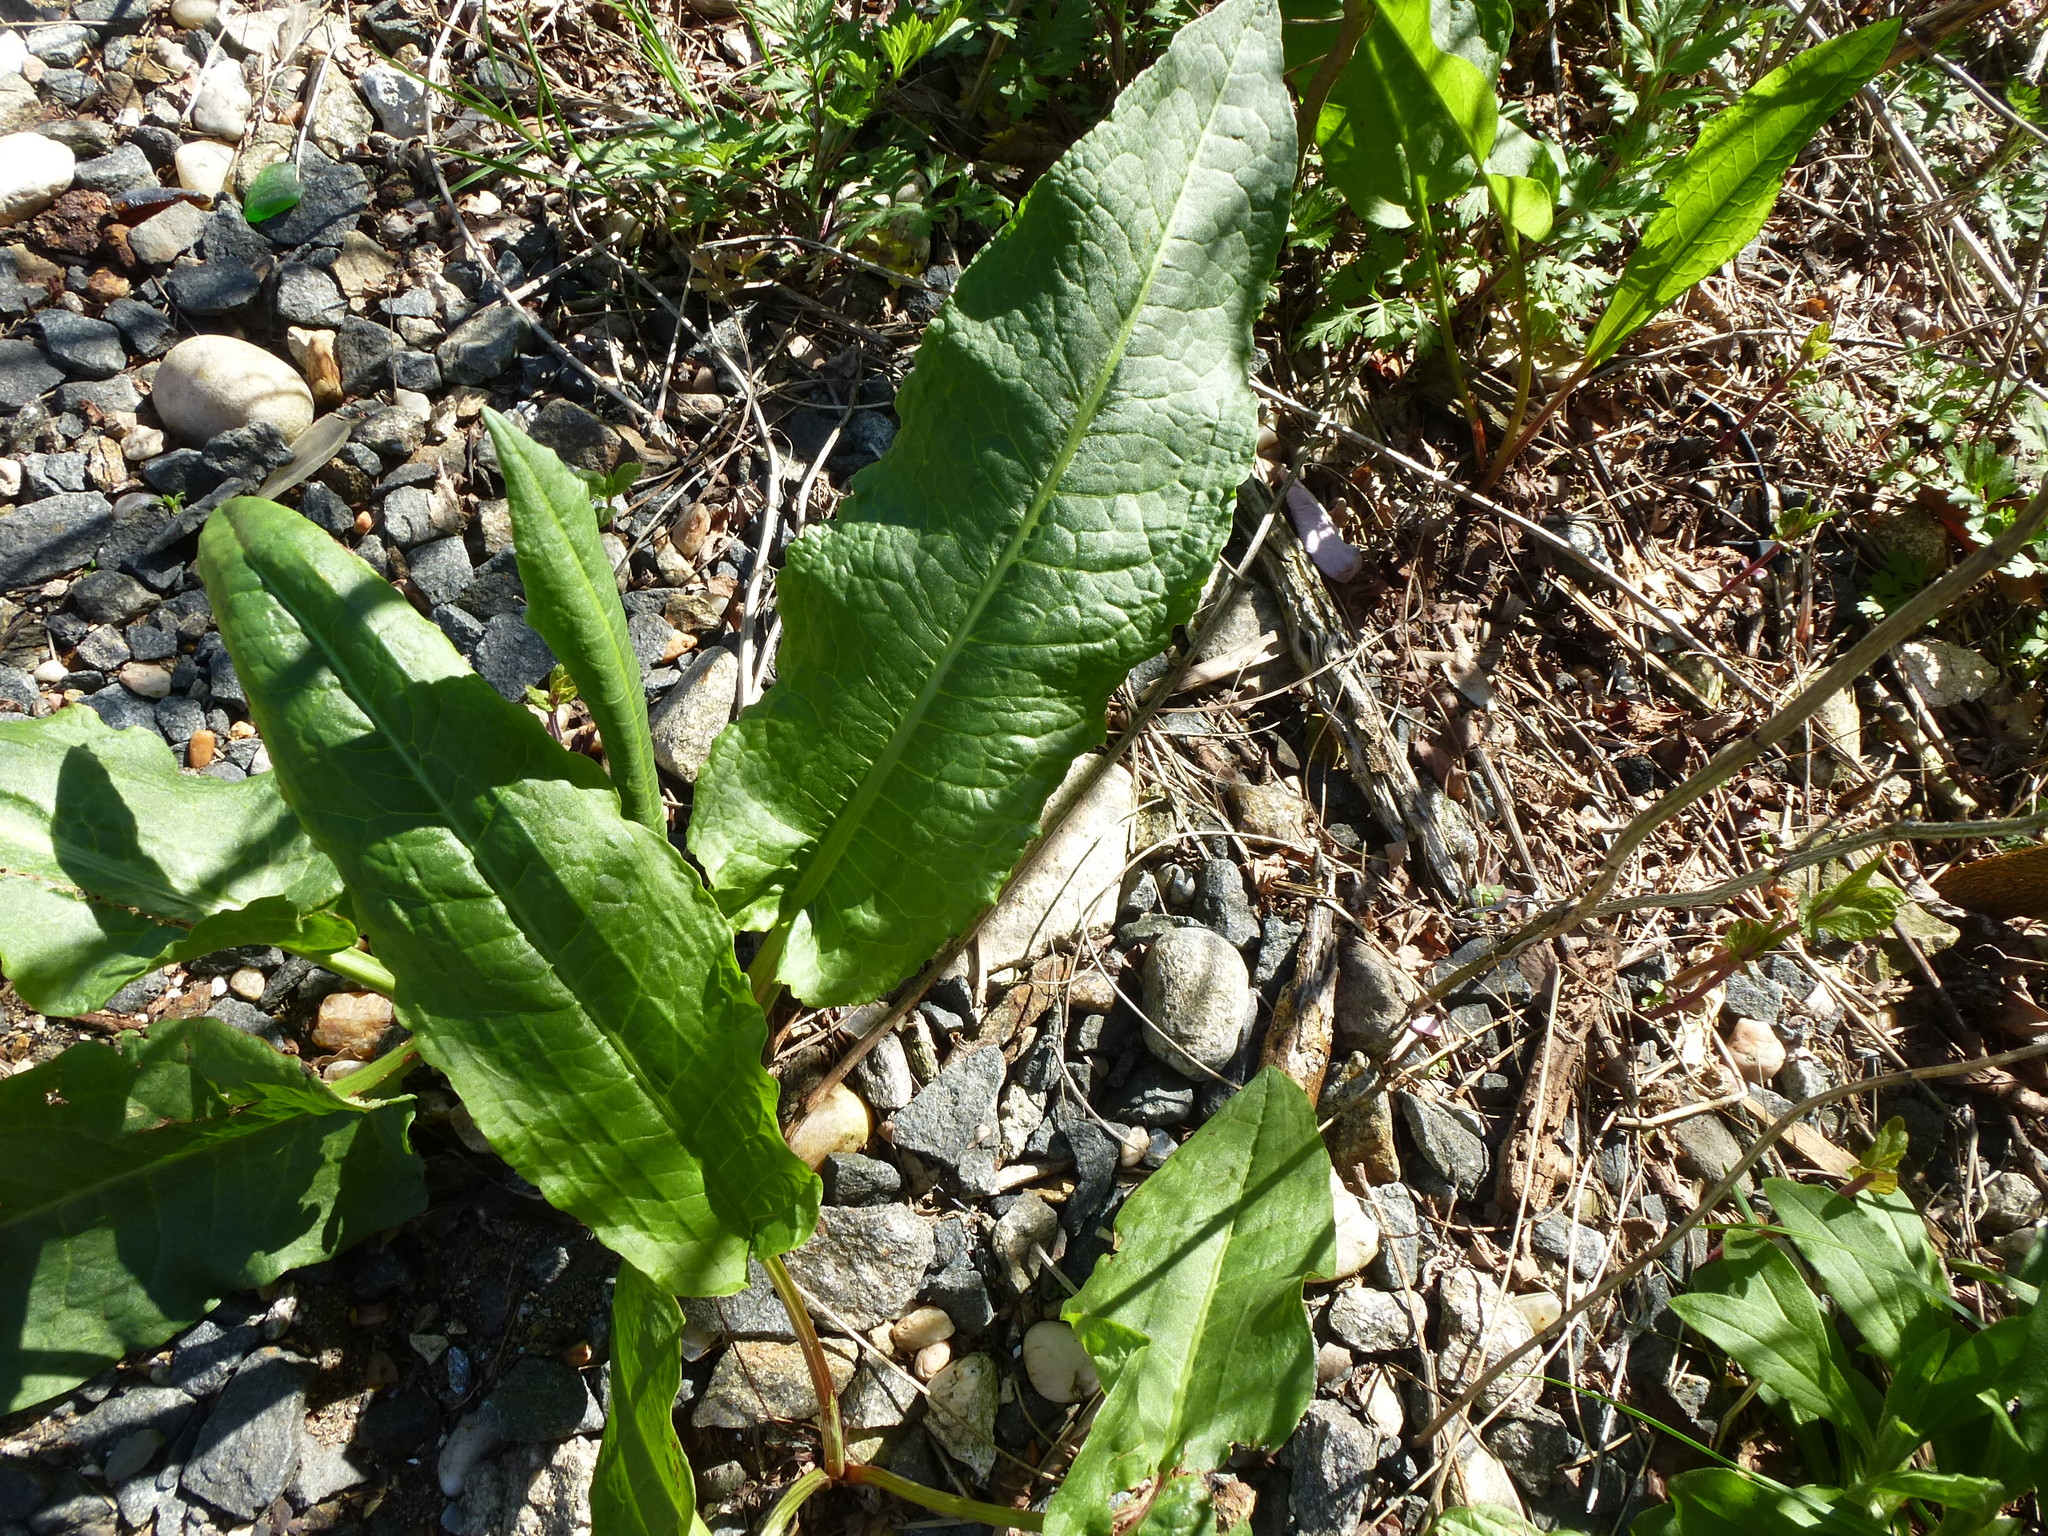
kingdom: Plantae
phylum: Tracheophyta
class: Magnoliopsida
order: Caryophyllales
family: Polygonaceae
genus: Rumex
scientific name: Rumex crispus
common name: Curled dock
